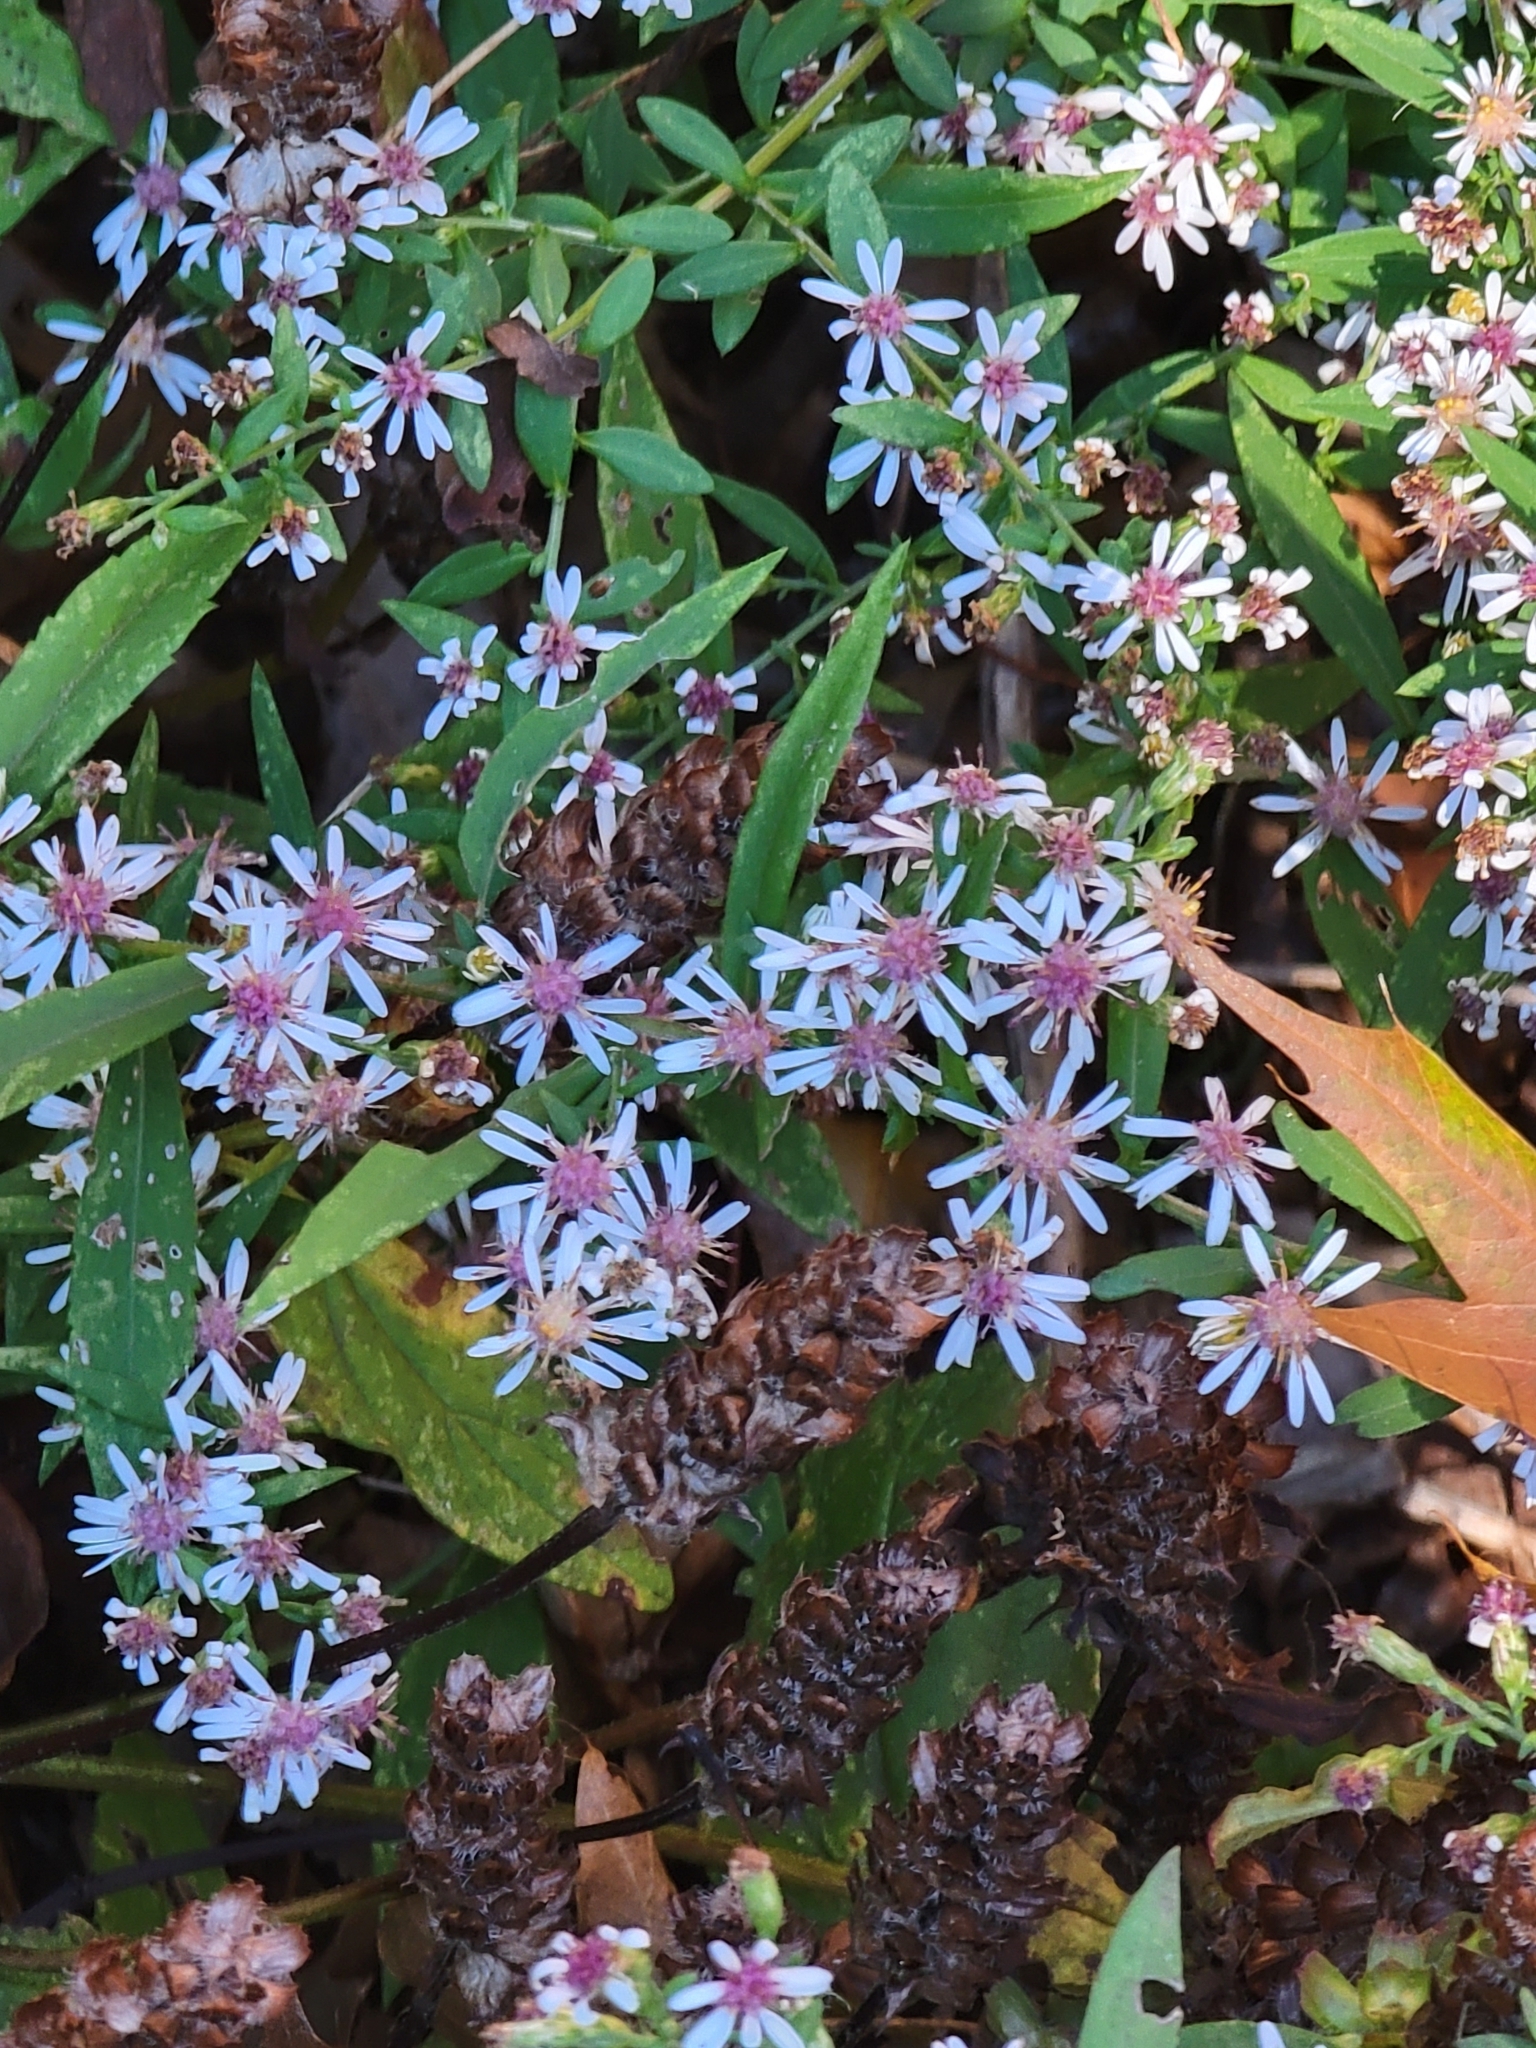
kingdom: Plantae
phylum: Tracheophyta
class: Magnoliopsida
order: Asterales
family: Asteraceae
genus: Symphyotrichum
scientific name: Symphyotrichum lateriflorum
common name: Calico aster
